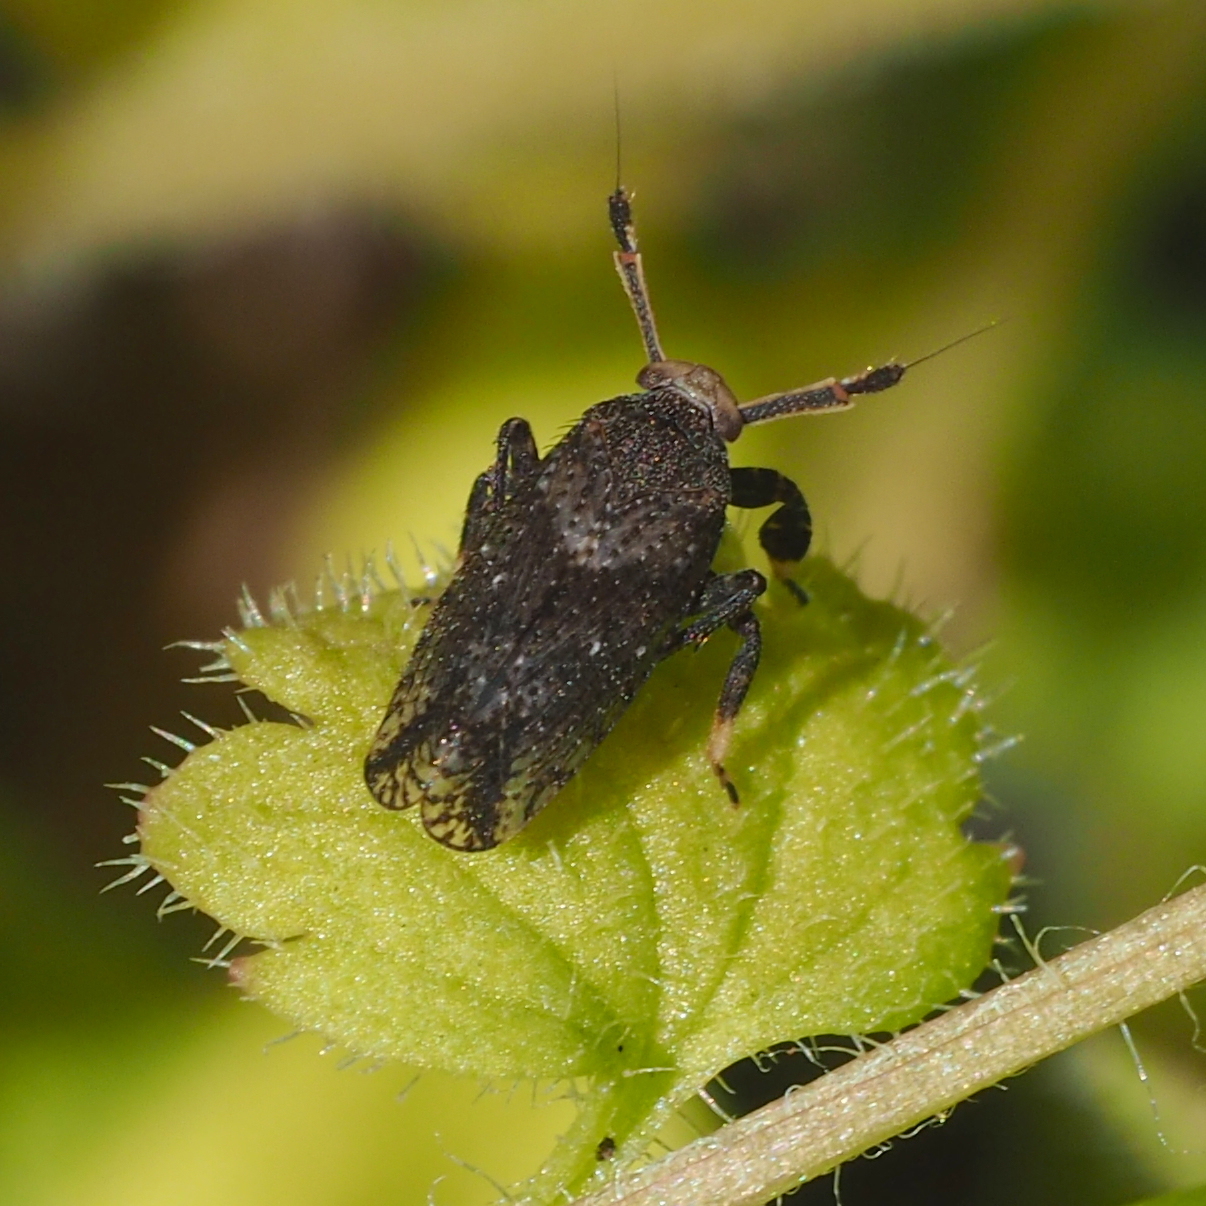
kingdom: Animalia
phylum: Arthropoda
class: Insecta
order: Hemiptera
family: Delphacidae
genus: Asiraca
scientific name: Asiraca clavicornis
